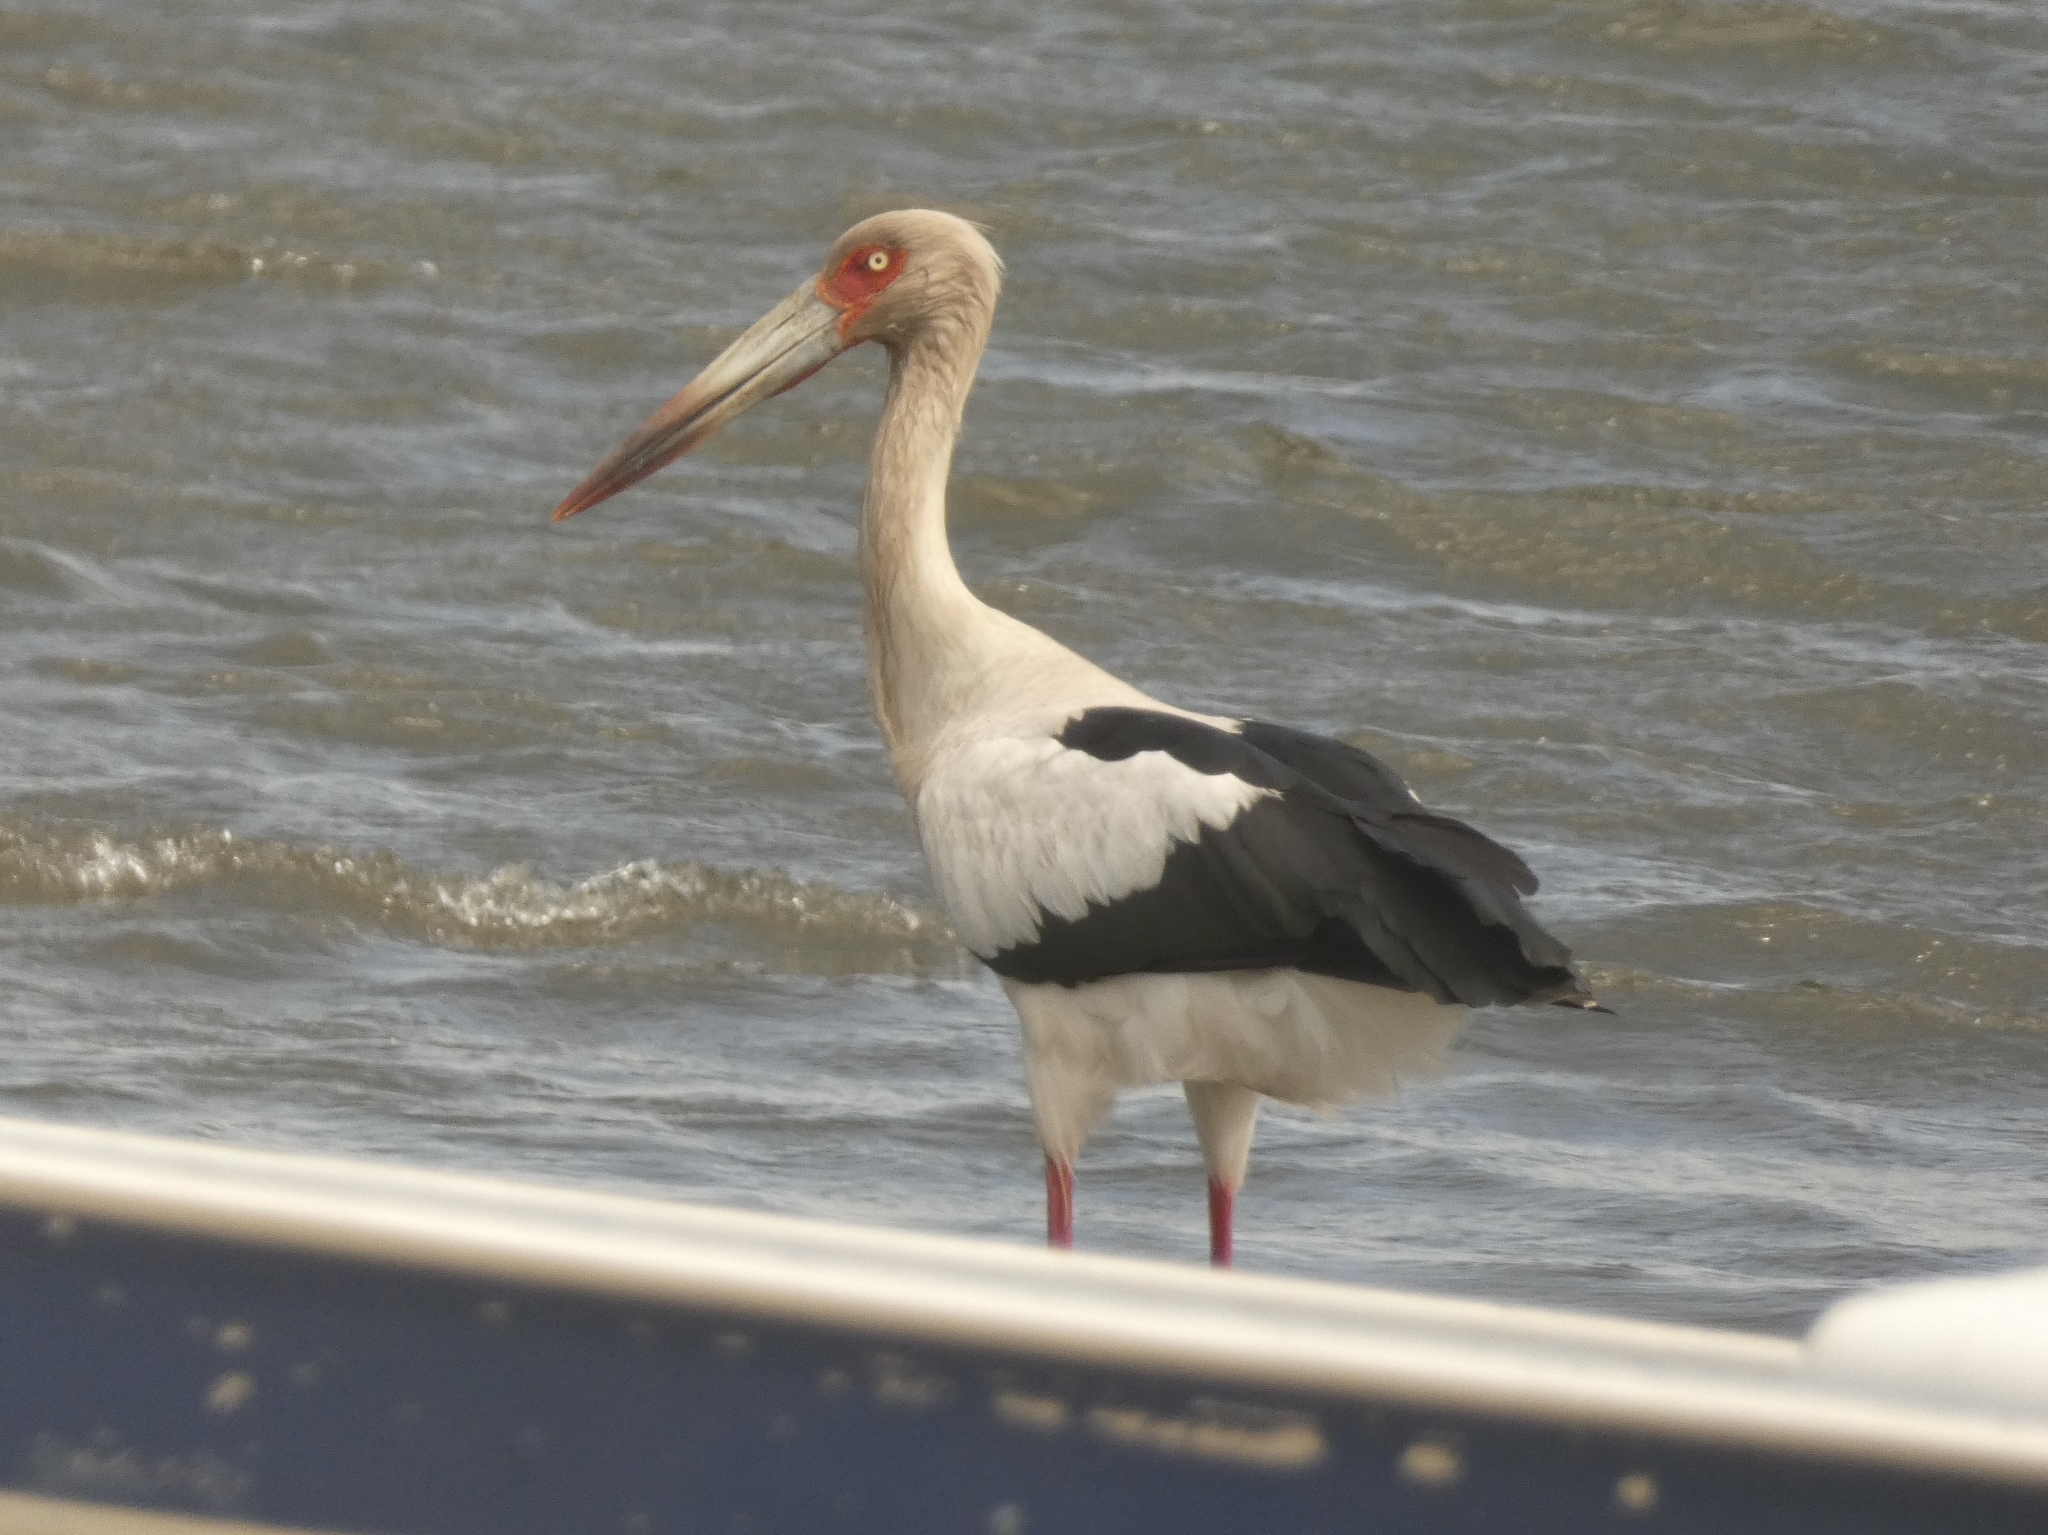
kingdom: Animalia
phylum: Chordata
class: Aves
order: Ciconiiformes
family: Ciconiidae
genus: Ciconia
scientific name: Ciconia maguari
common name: Maguari stork
